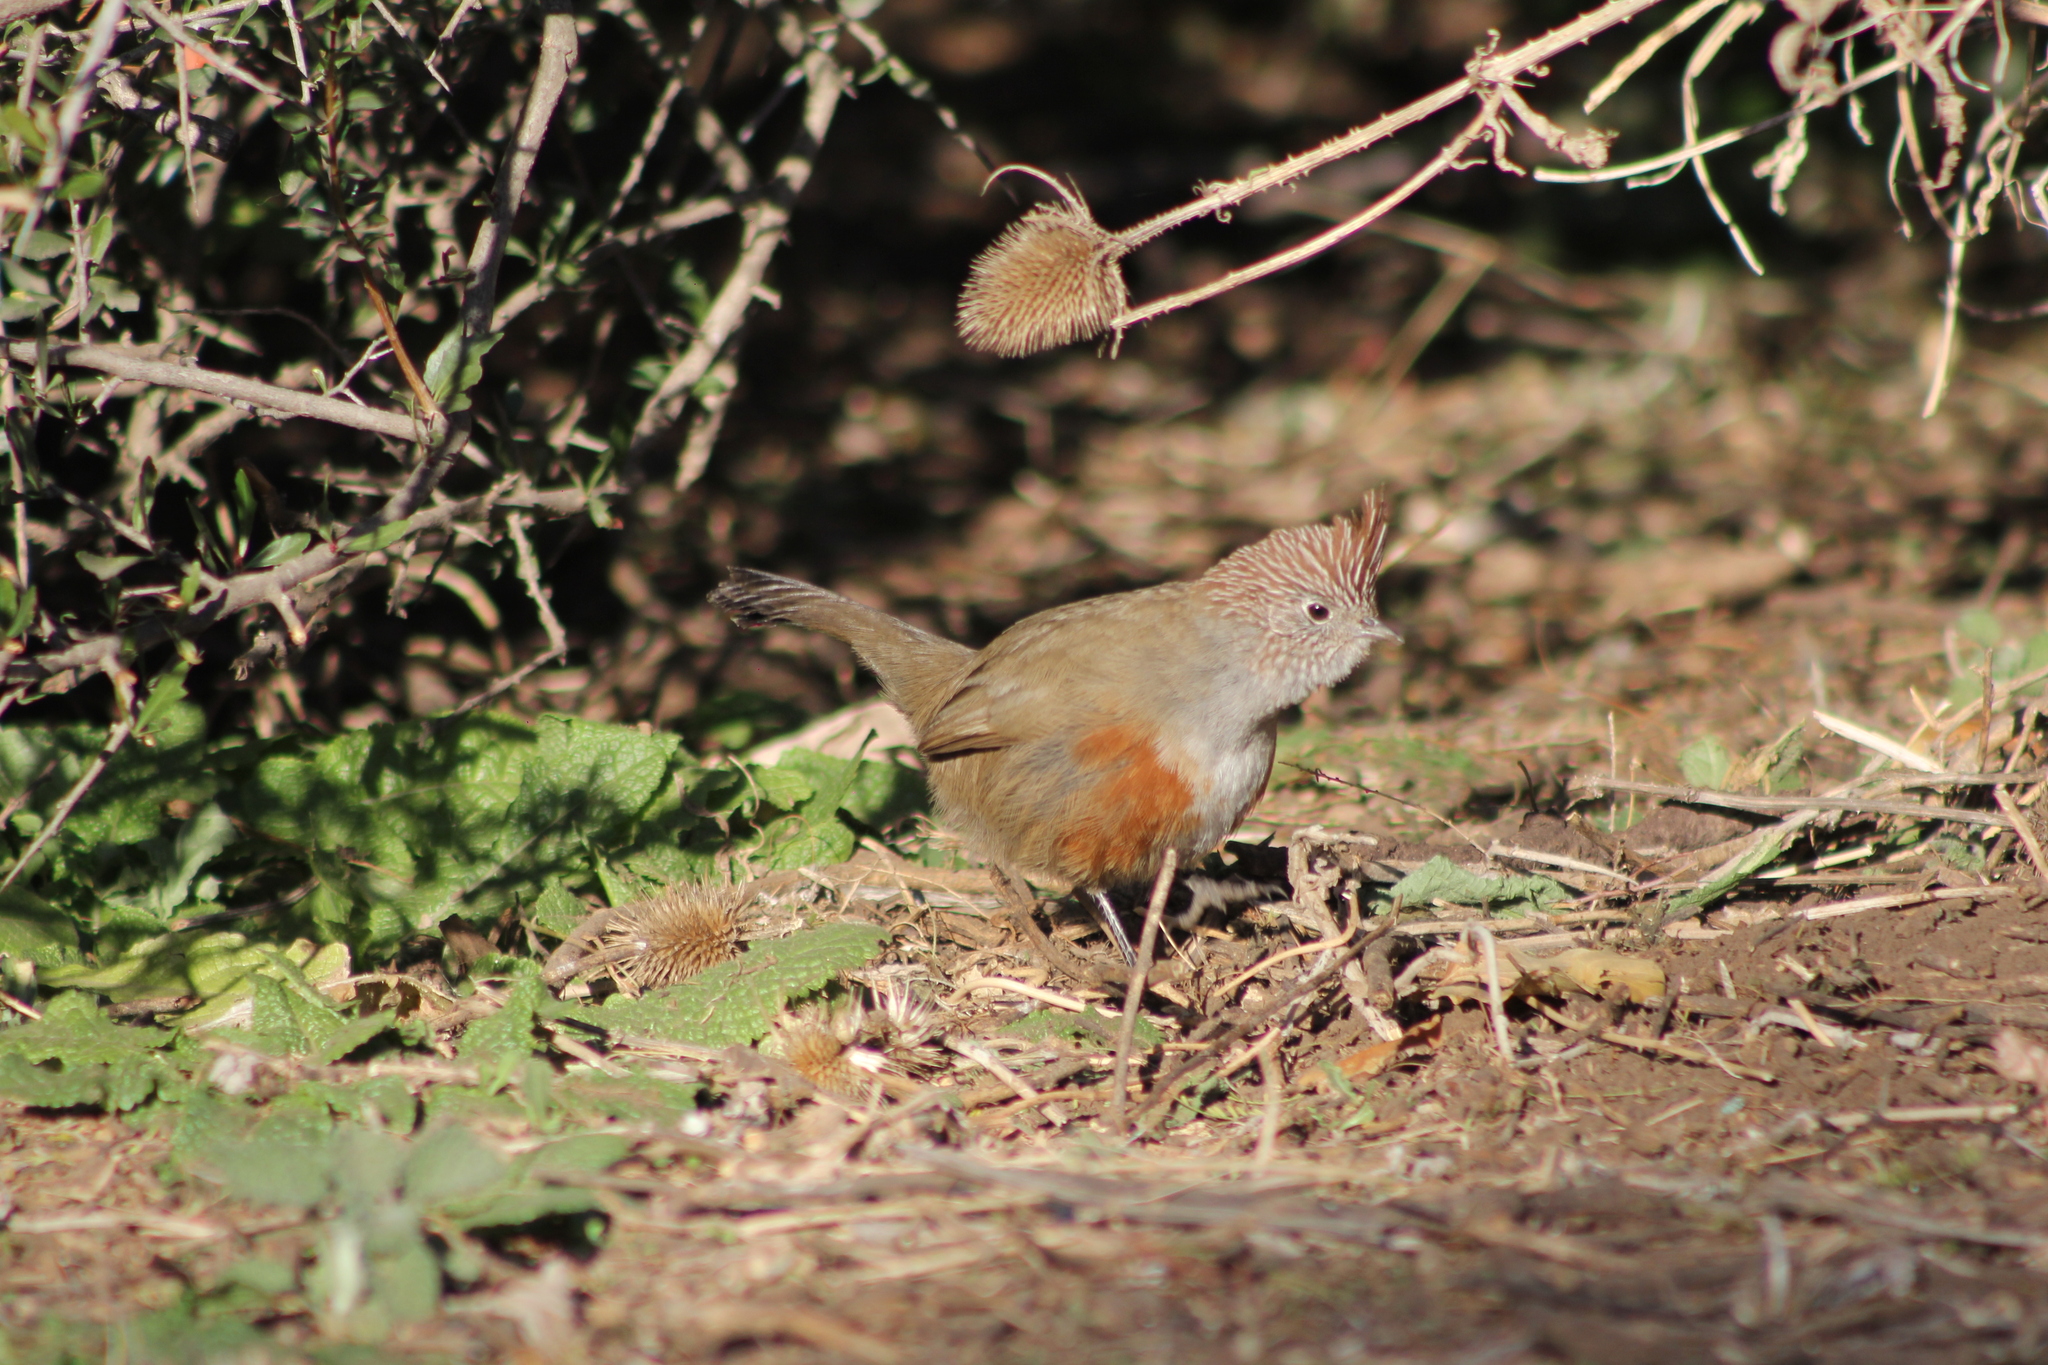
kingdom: Animalia
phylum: Chordata
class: Aves
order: Passeriformes
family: Rhinocryptidae
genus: Rhinocrypta
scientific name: Rhinocrypta lanceolata
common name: Crested gallito
